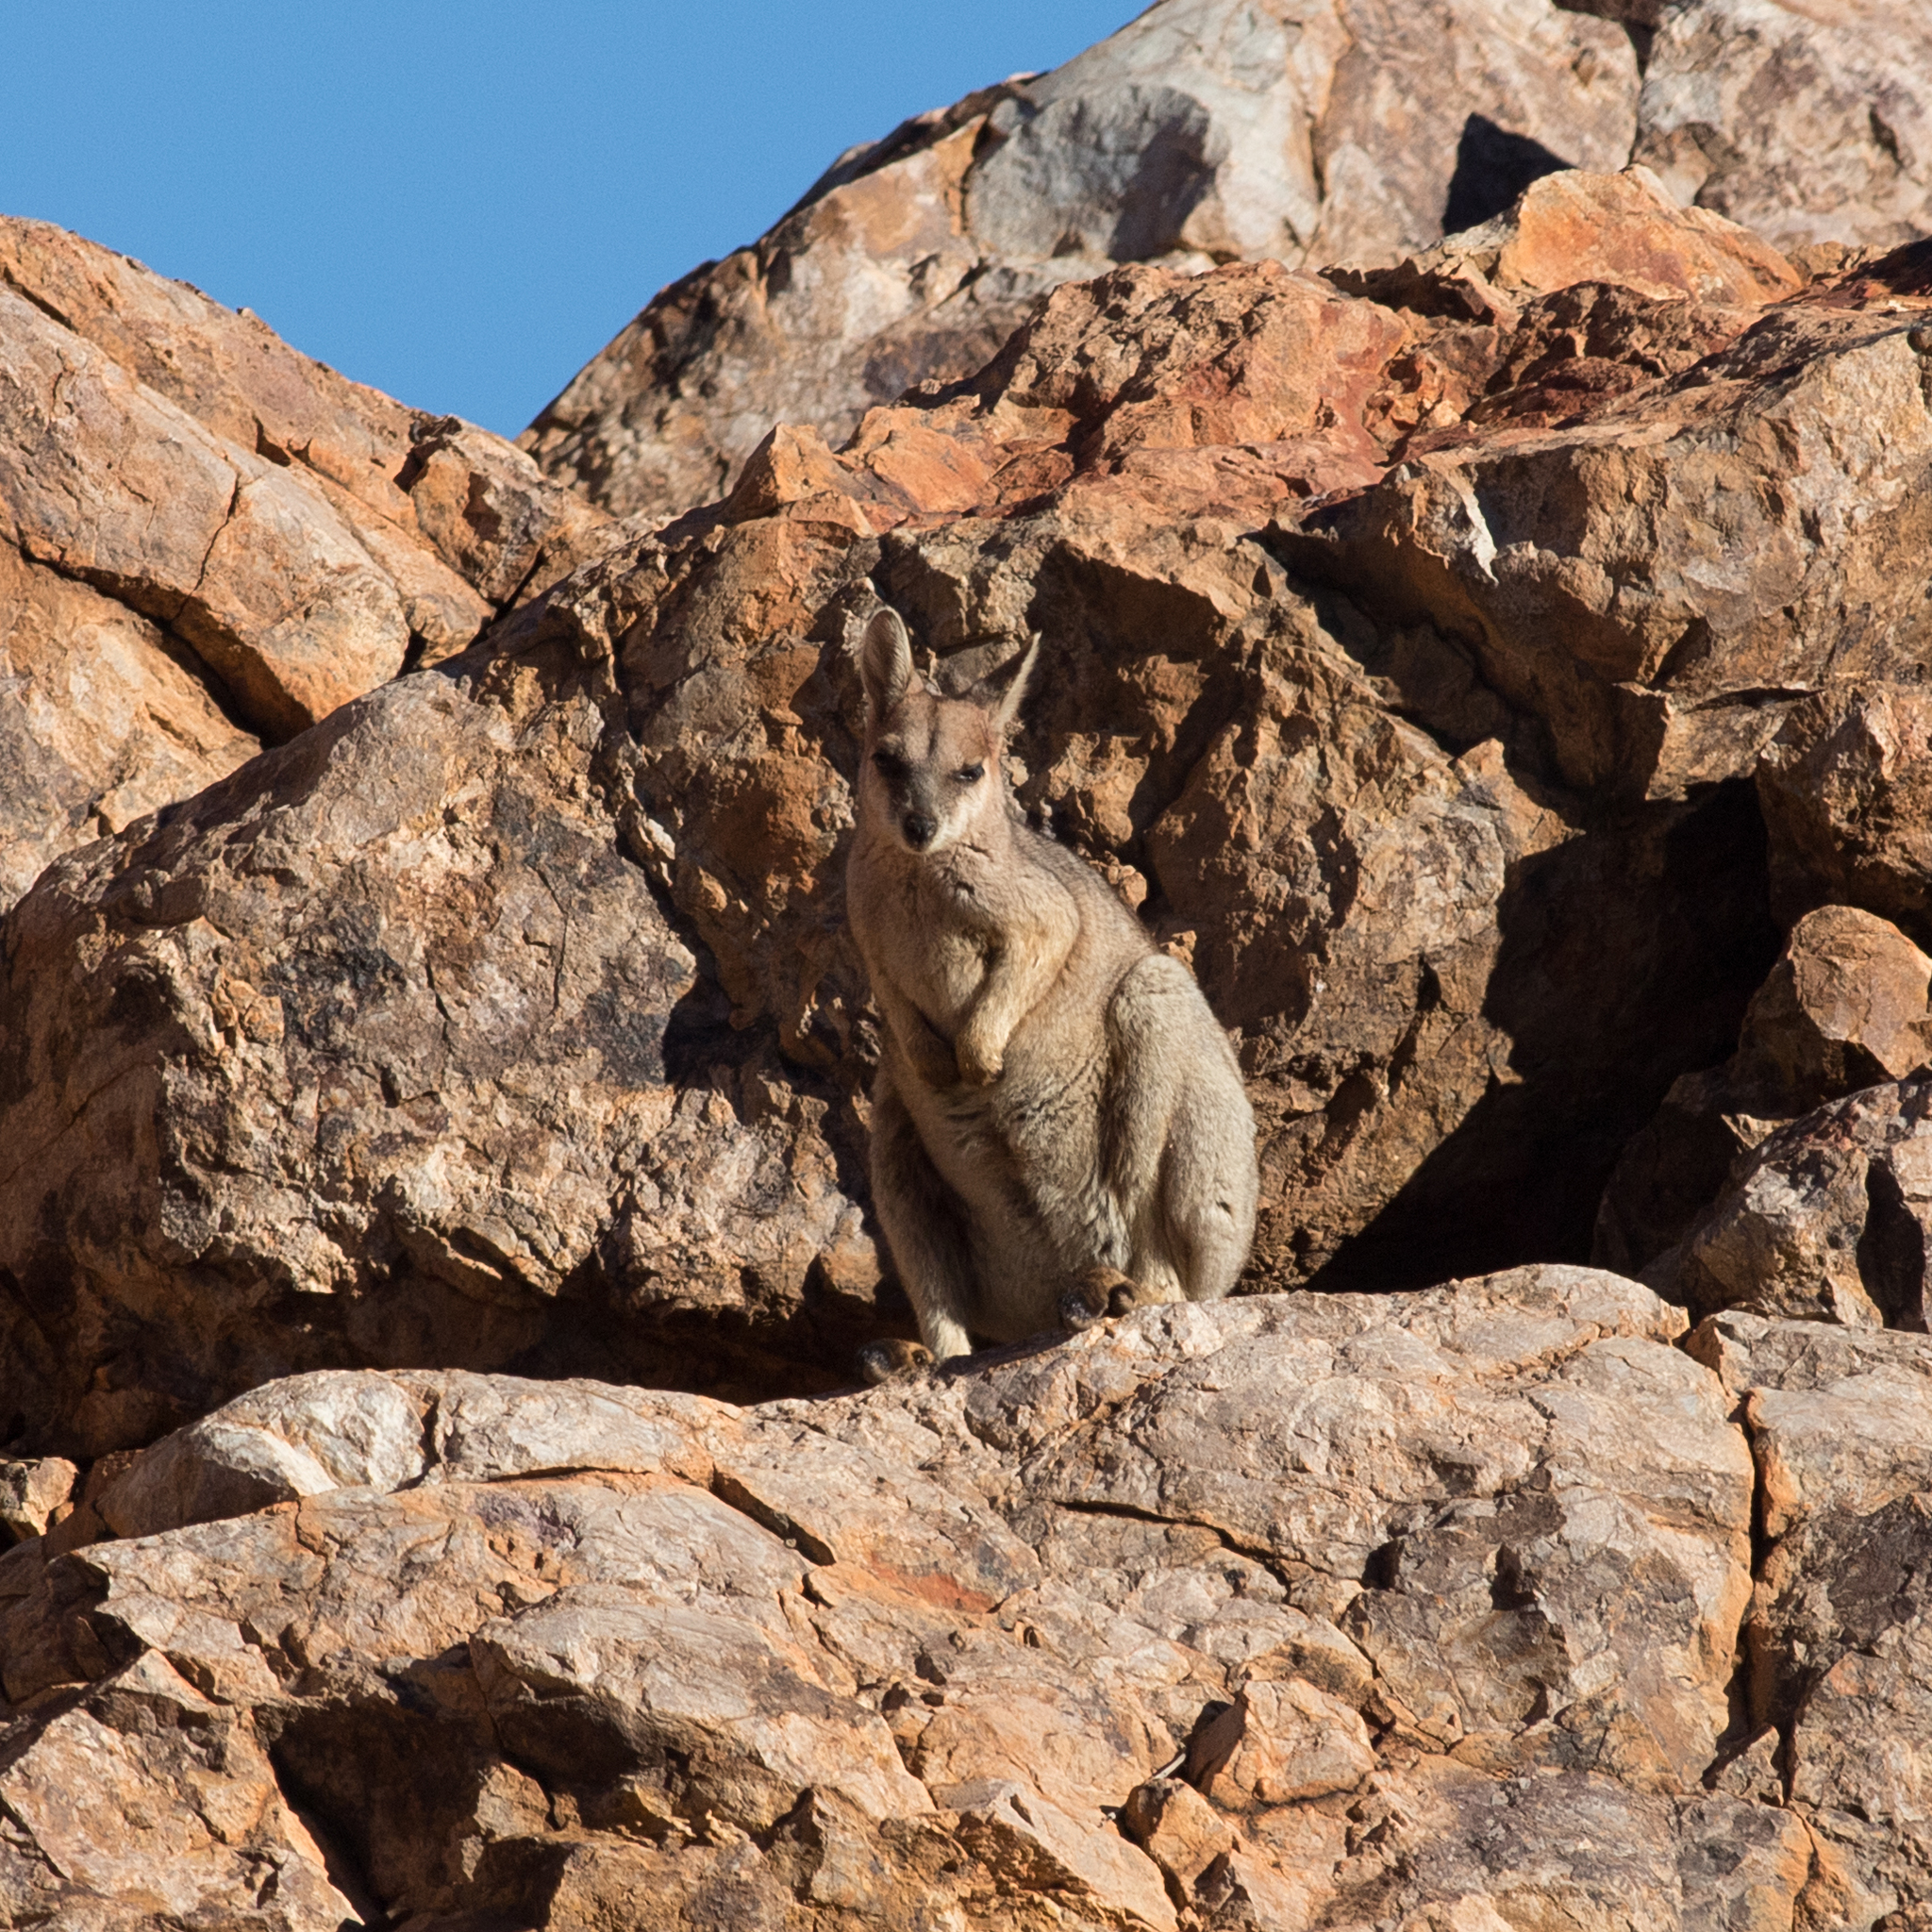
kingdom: Animalia
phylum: Chordata
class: Mammalia
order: Diprotodontia
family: Macropodidae
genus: Petrogale
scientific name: Petrogale purpureicollis
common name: Purple-necked rock-wallaby
